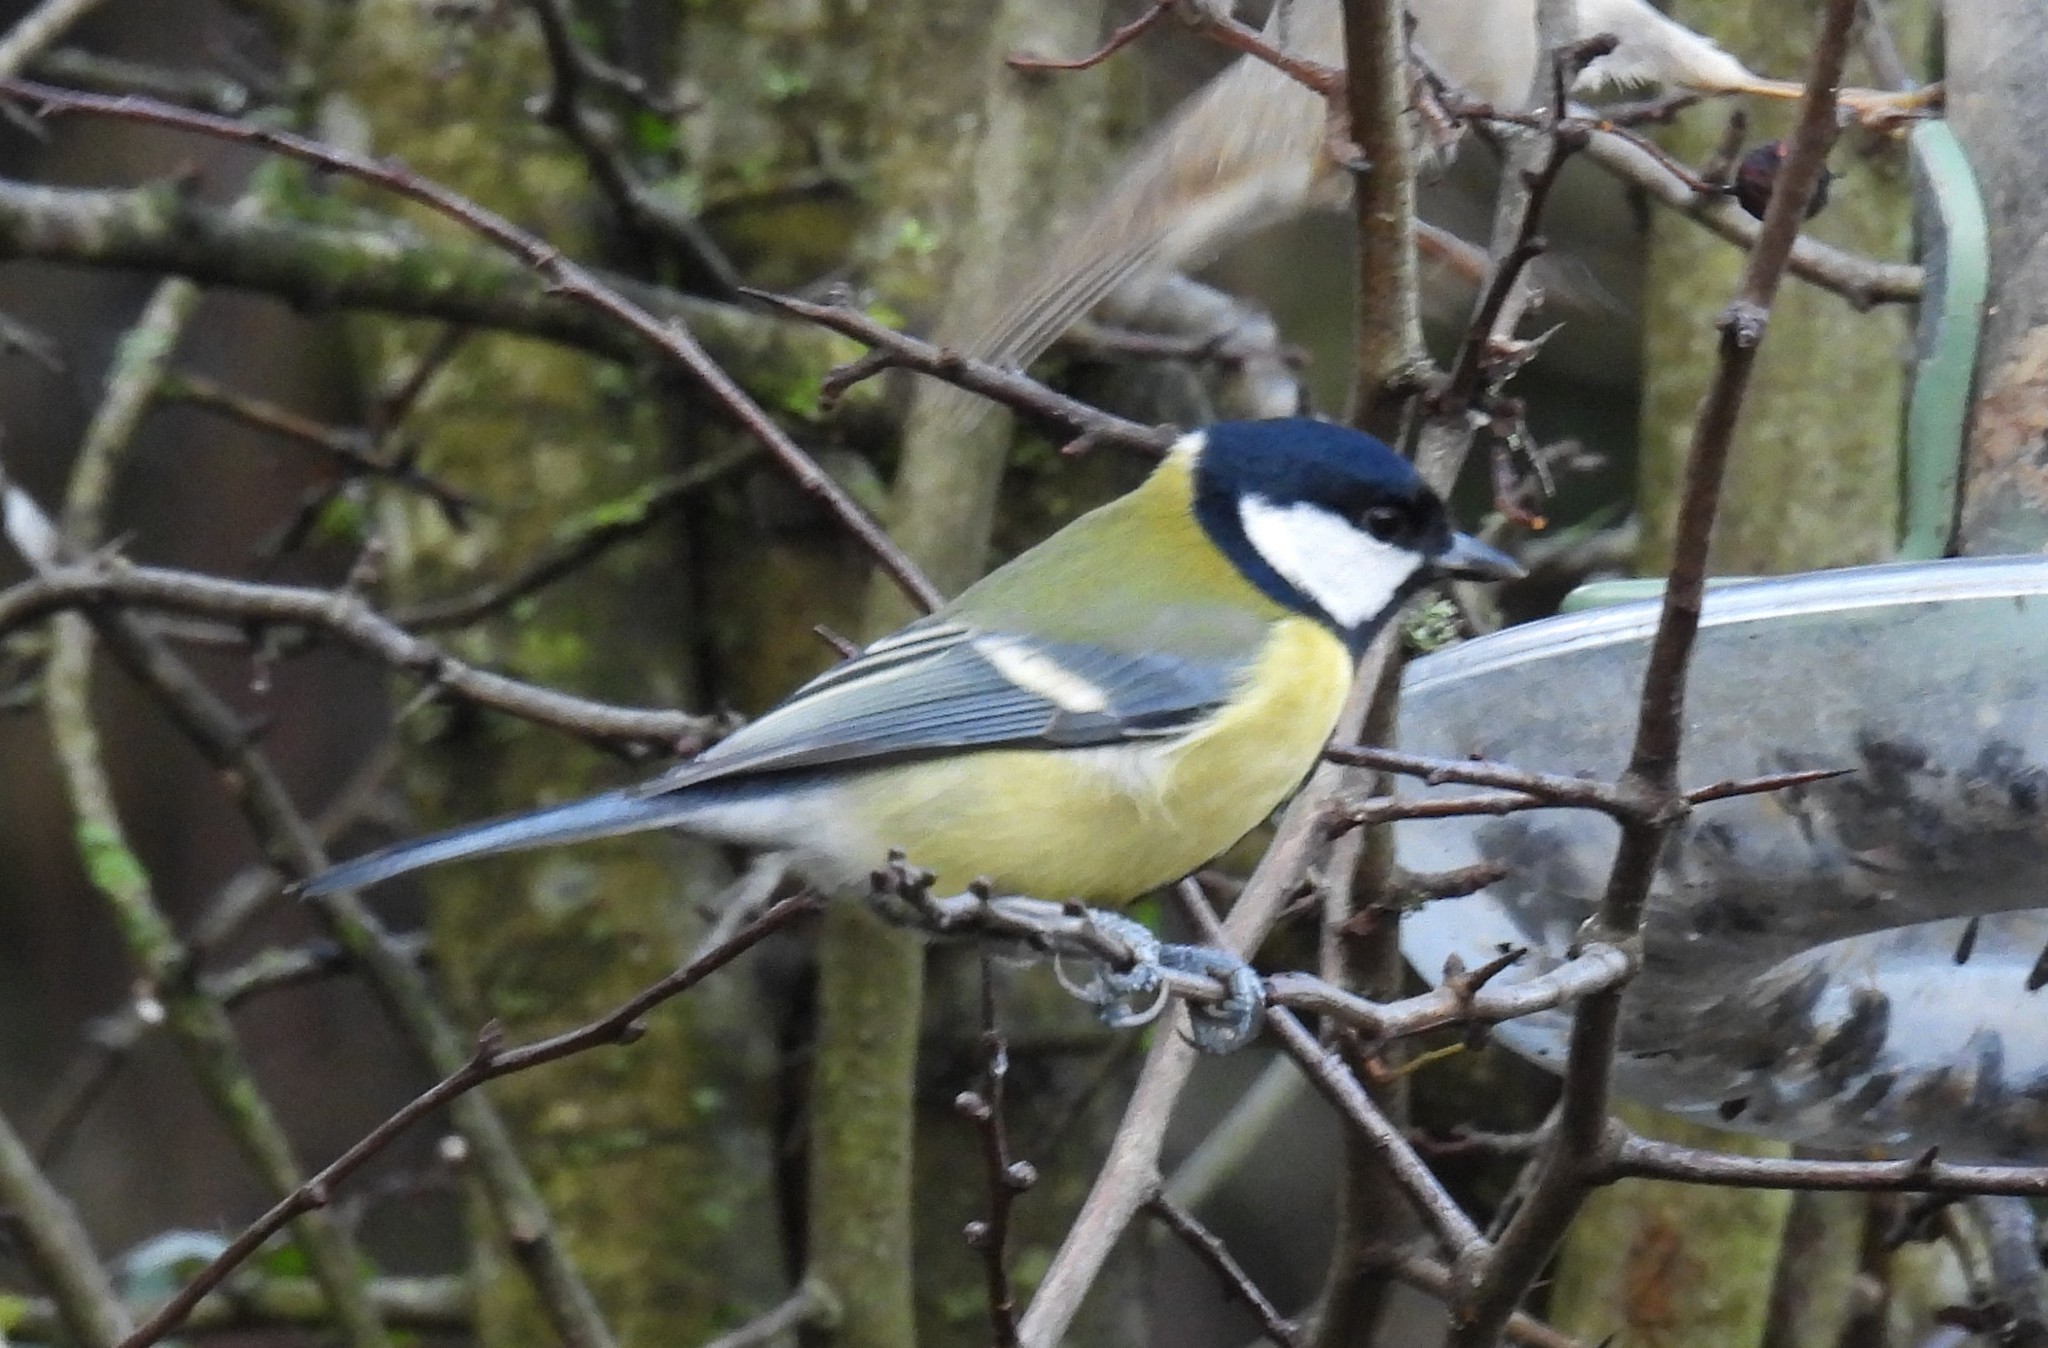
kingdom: Animalia
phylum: Chordata
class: Aves
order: Passeriformes
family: Paridae
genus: Parus
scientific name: Parus major
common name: Great tit
